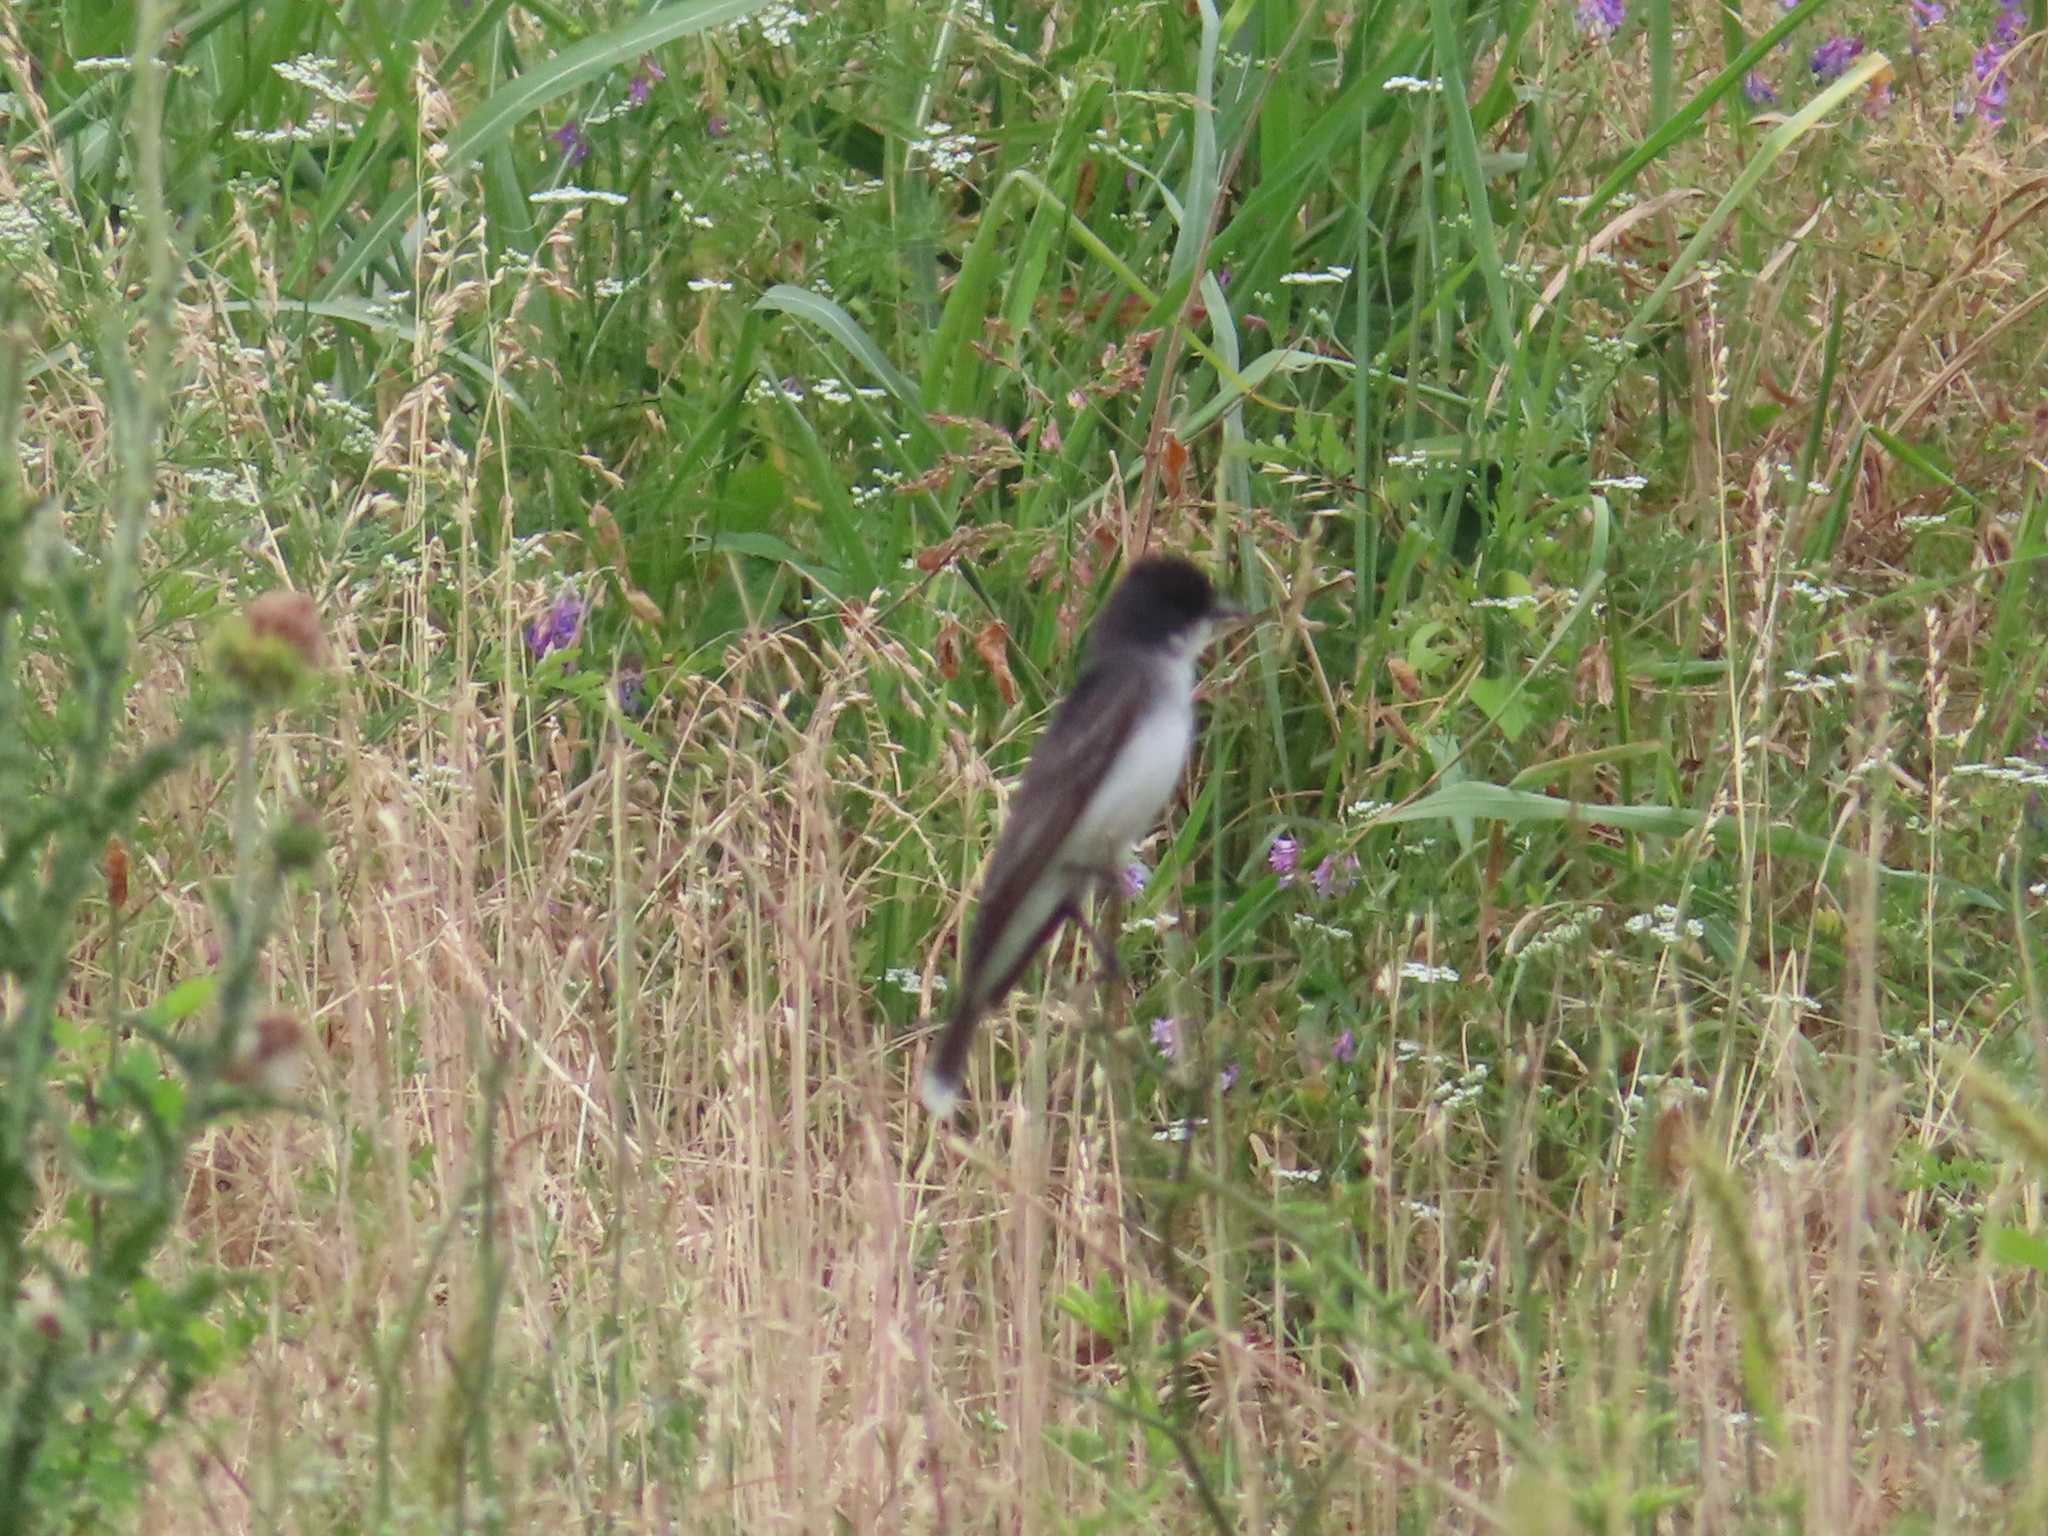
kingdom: Animalia
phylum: Chordata
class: Aves
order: Passeriformes
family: Tyrannidae
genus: Tyrannus
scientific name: Tyrannus tyrannus
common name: Eastern kingbird
